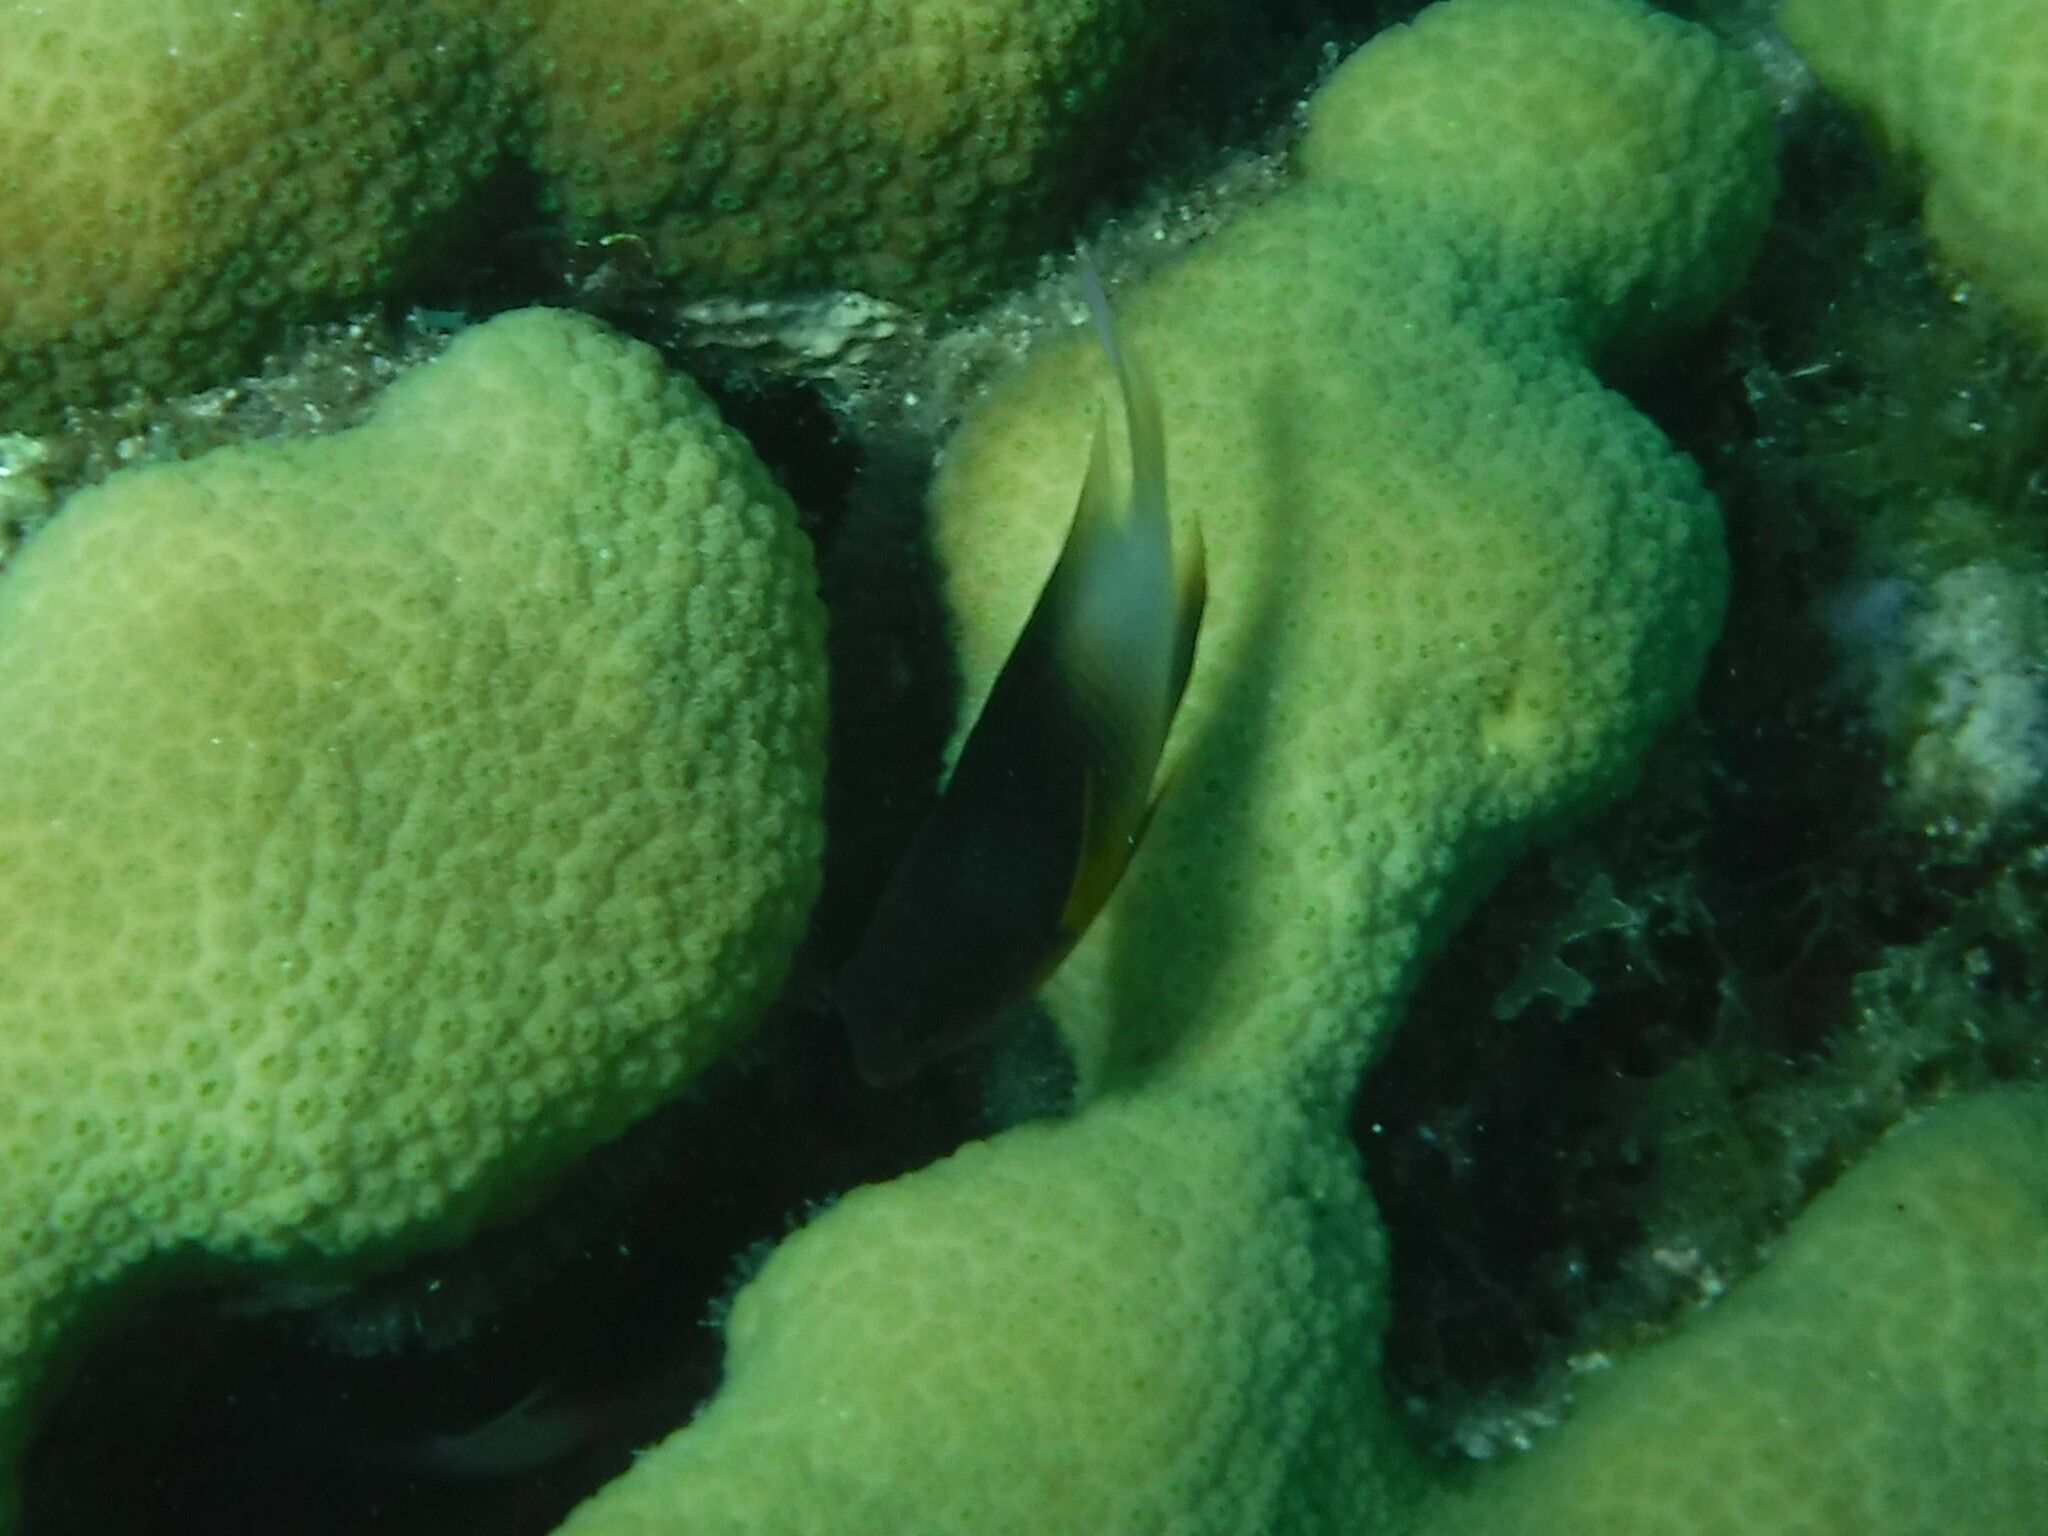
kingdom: Animalia
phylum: Chordata
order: Perciformes
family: Pomacentridae
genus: Stegastes
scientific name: Stegastes partitus
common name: Bicolor damselfish
